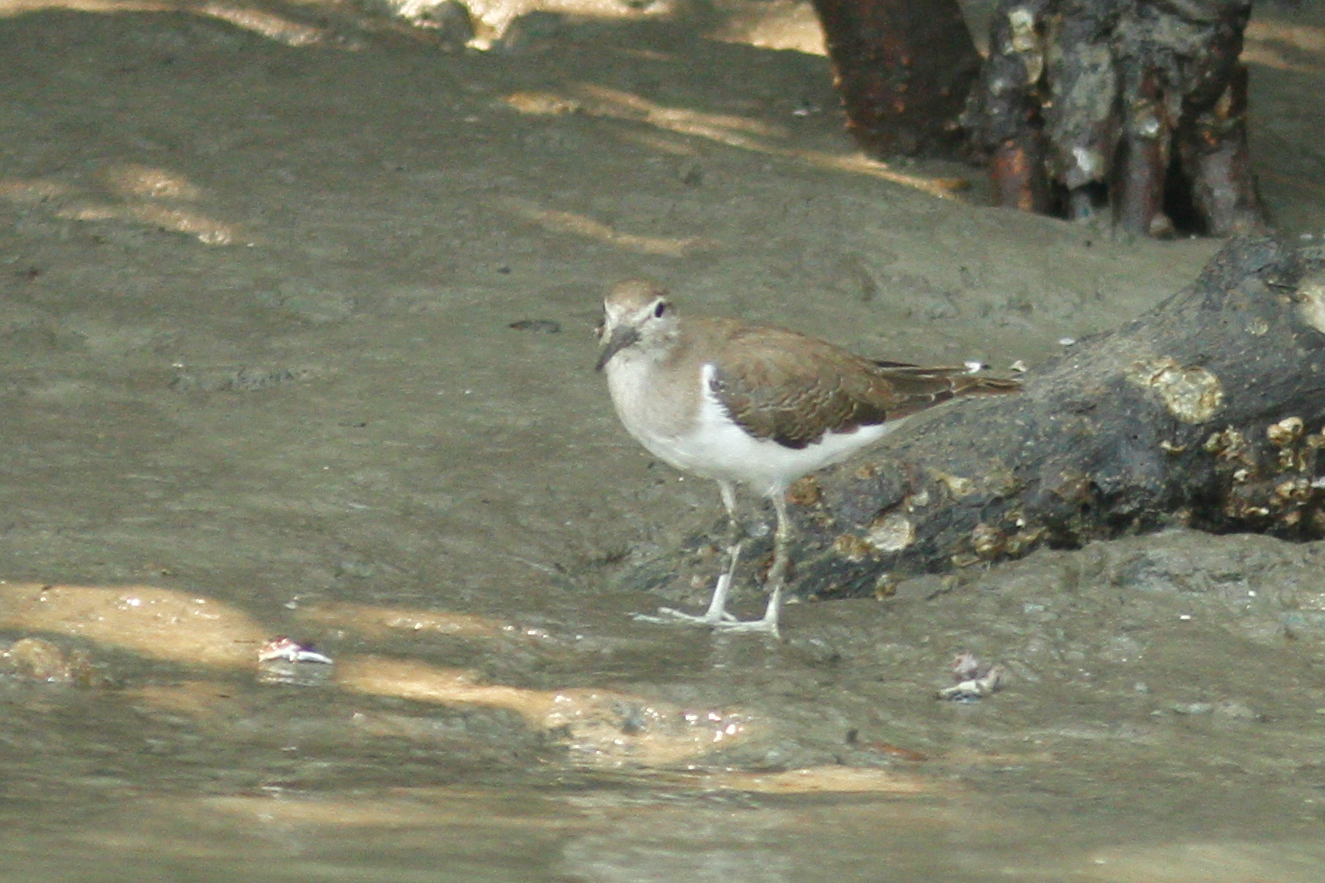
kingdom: Animalia
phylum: Chordata
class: Aves
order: Charadriiformes
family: Scolopacidae
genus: Actitis
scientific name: Actitis hypoleucos
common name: Common sandpiper
